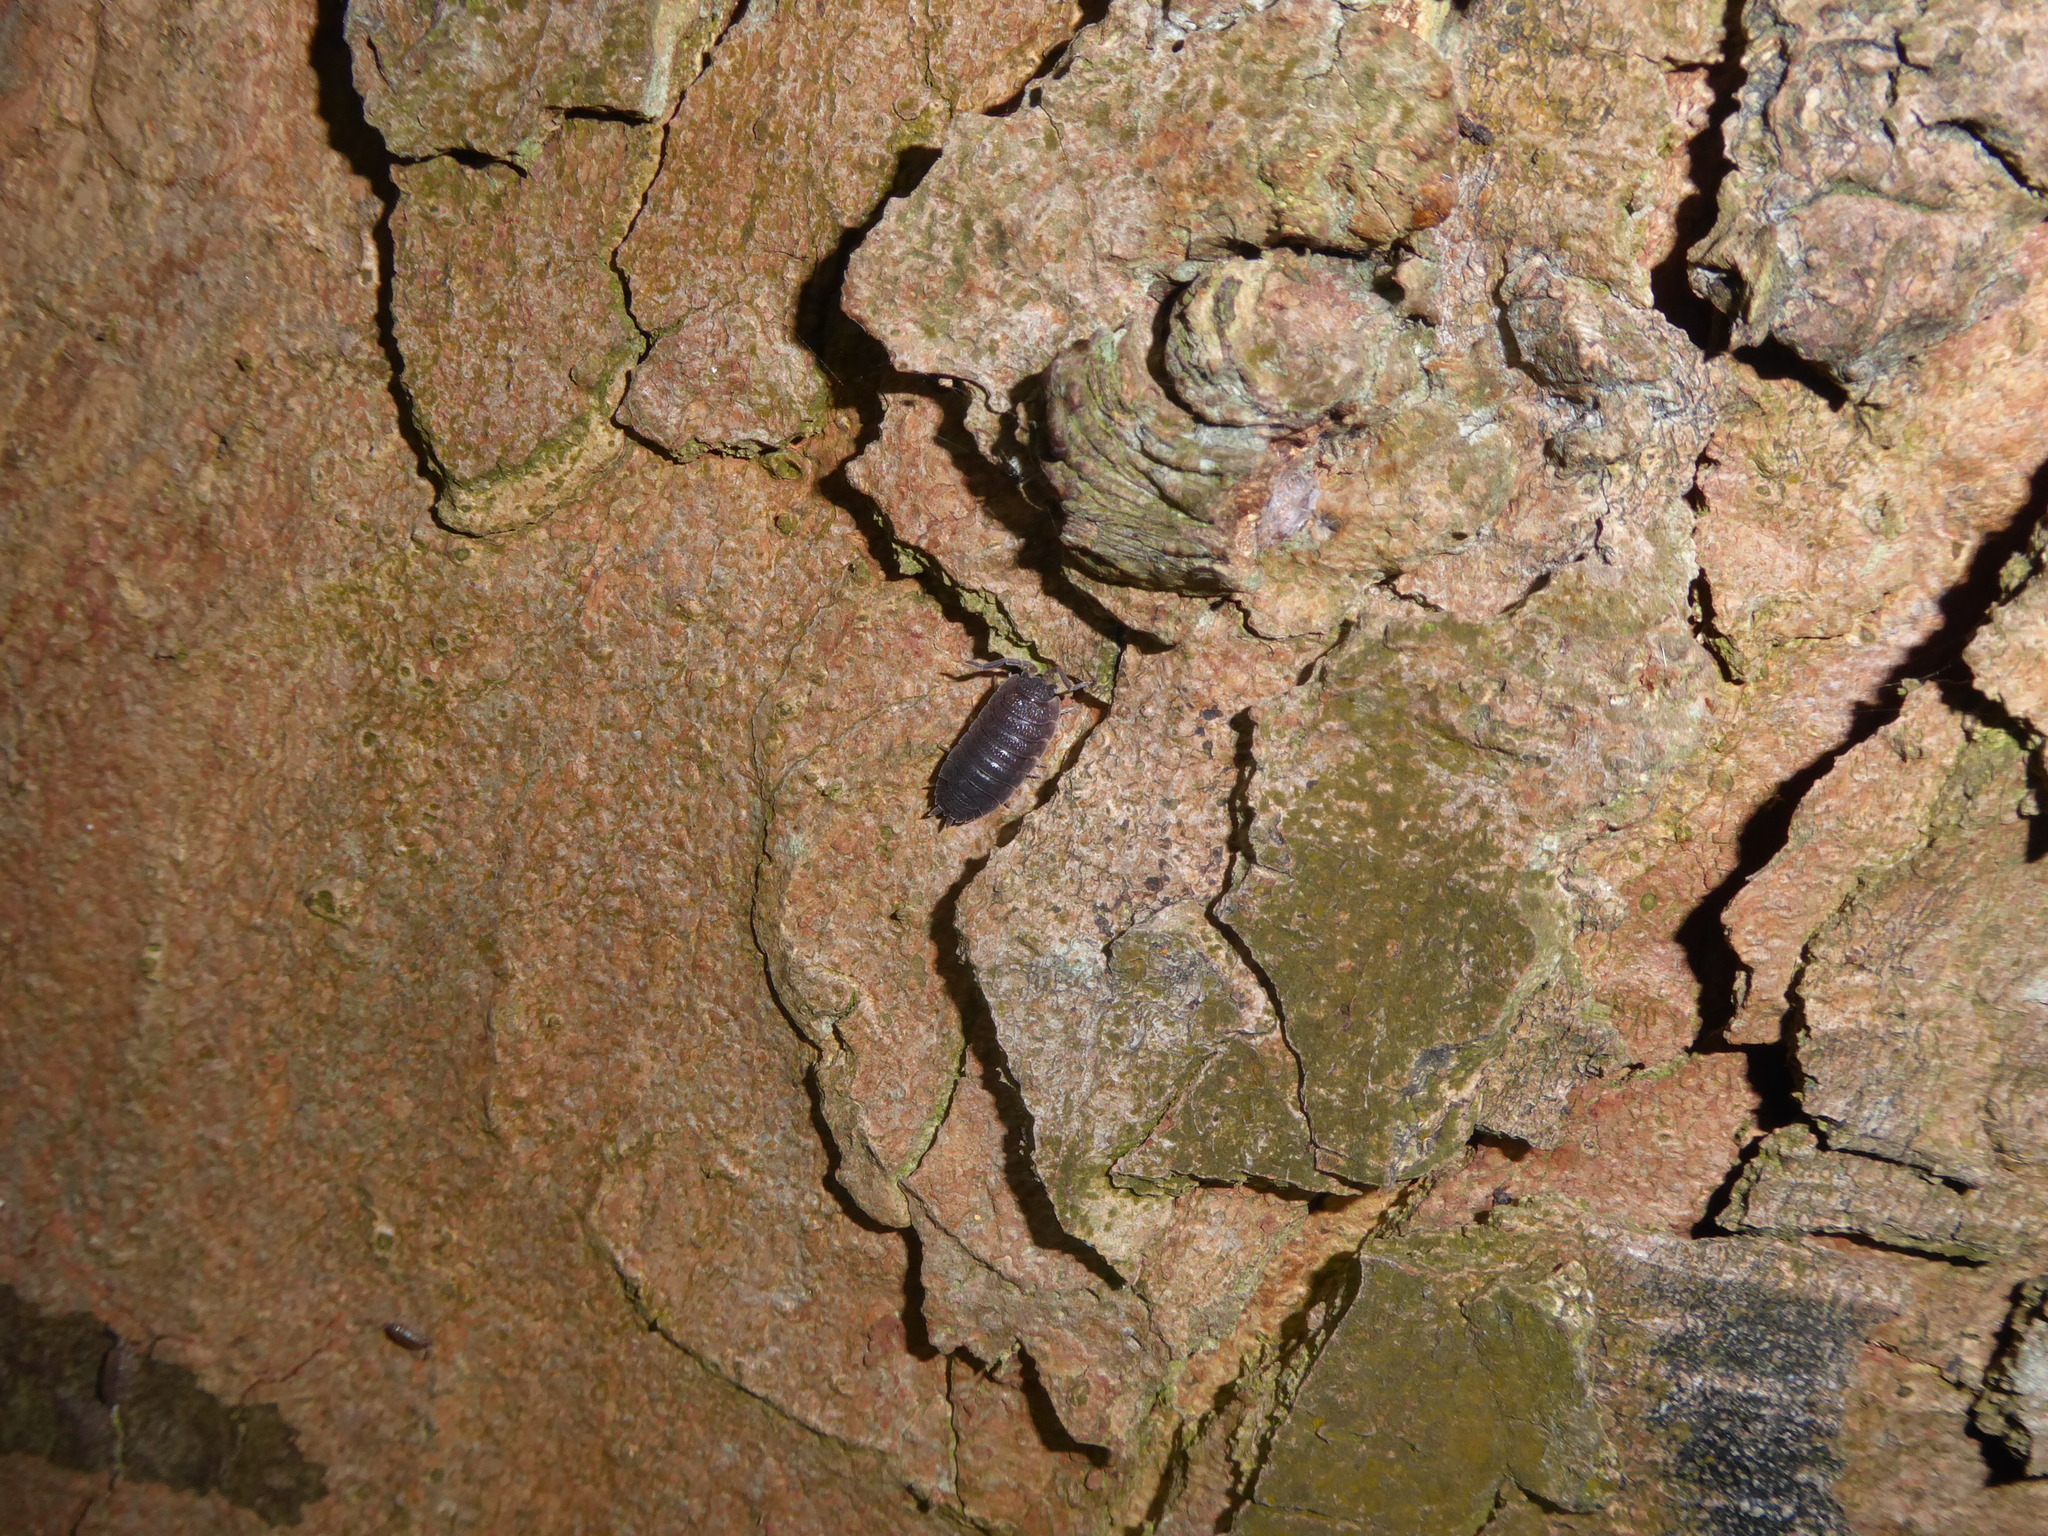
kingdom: Animalia
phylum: Arthropoda
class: Malacostraca
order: Isopoda
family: Porcellionidae
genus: Porcellio
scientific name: Porcellio scaber
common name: Common rough woodlouse
